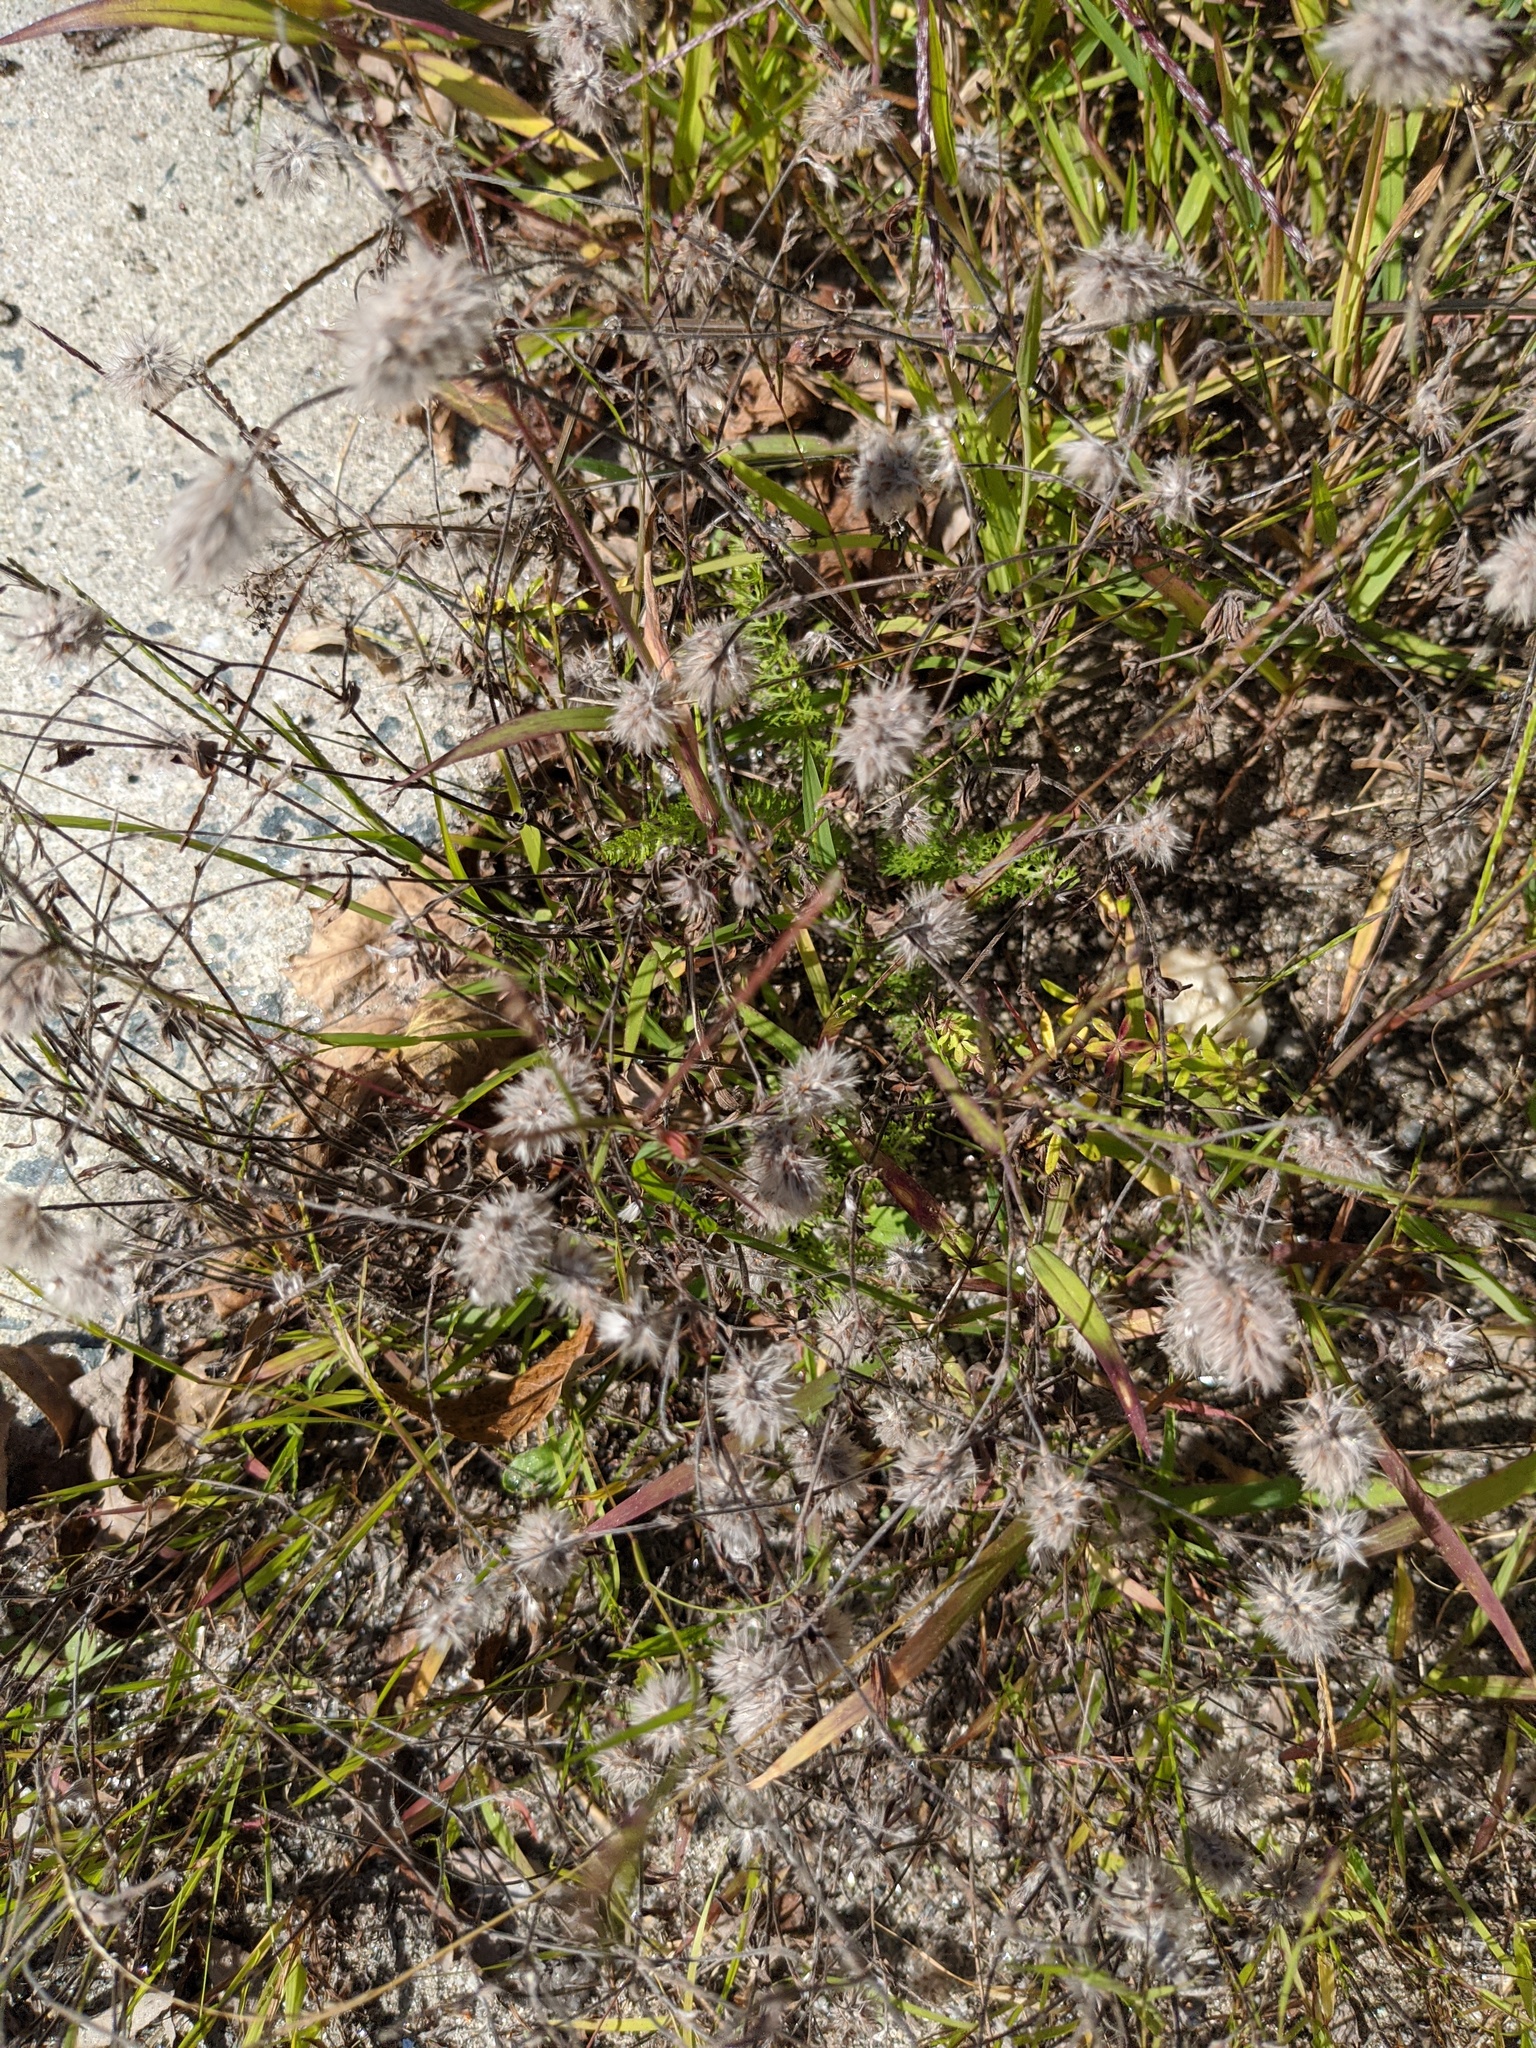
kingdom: Plantae
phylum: Tracheophyta
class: Magnoliopsida
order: Fabales
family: Fabaceae
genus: Trifolium
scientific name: Trifolium arvense
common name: Hare's-foot clover
